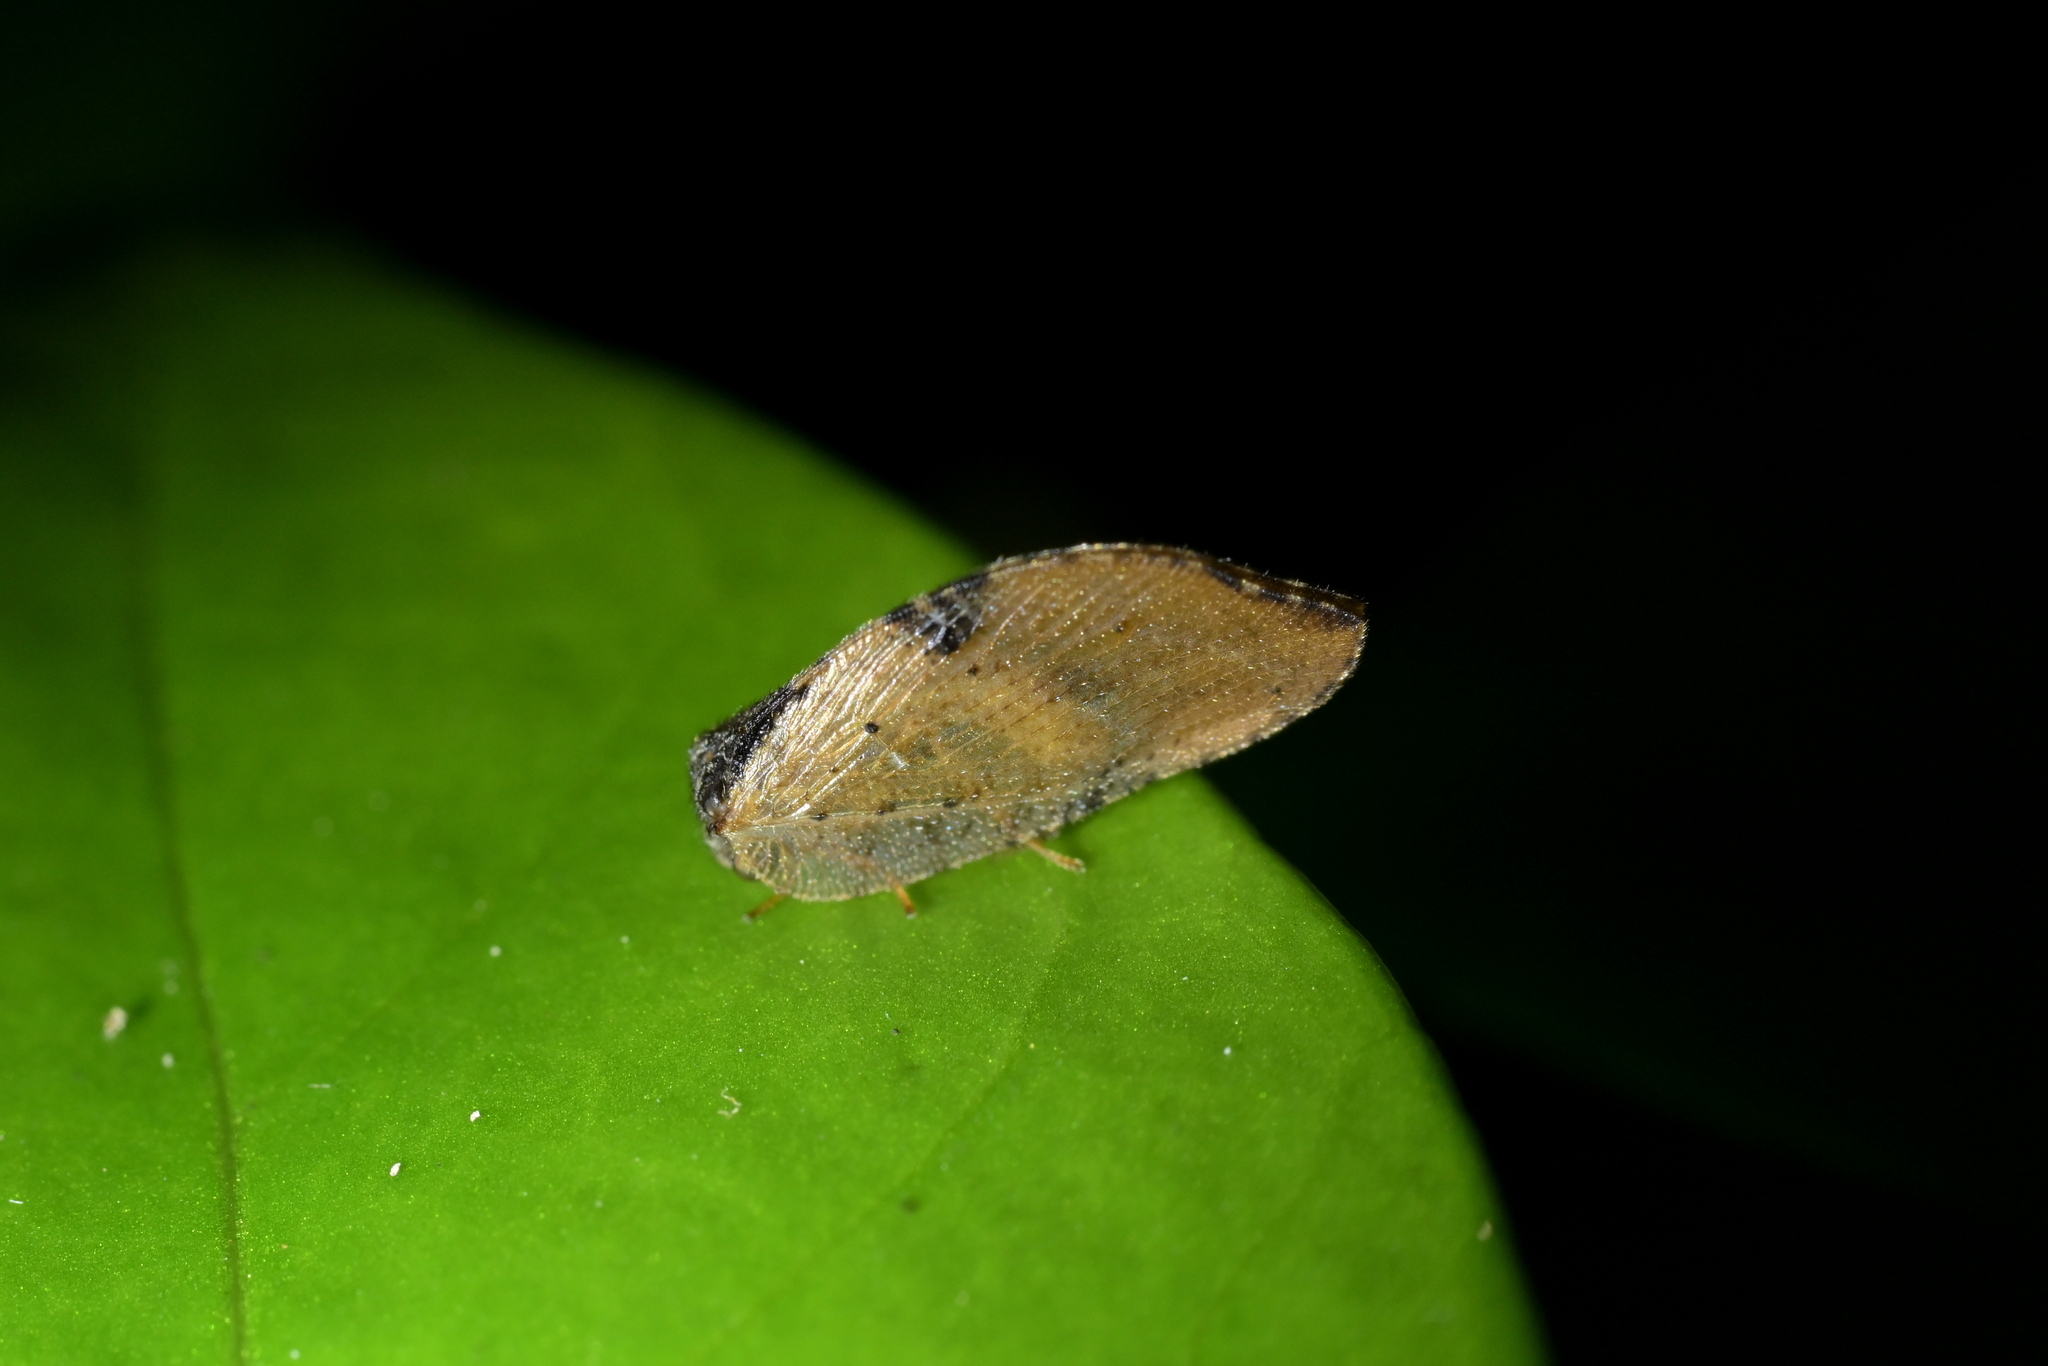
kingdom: Animalia
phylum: Arthropoda
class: Insecta
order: Neuroptera
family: Hemerobiidae
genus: Drepanacra
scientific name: Drepanacra binocula
